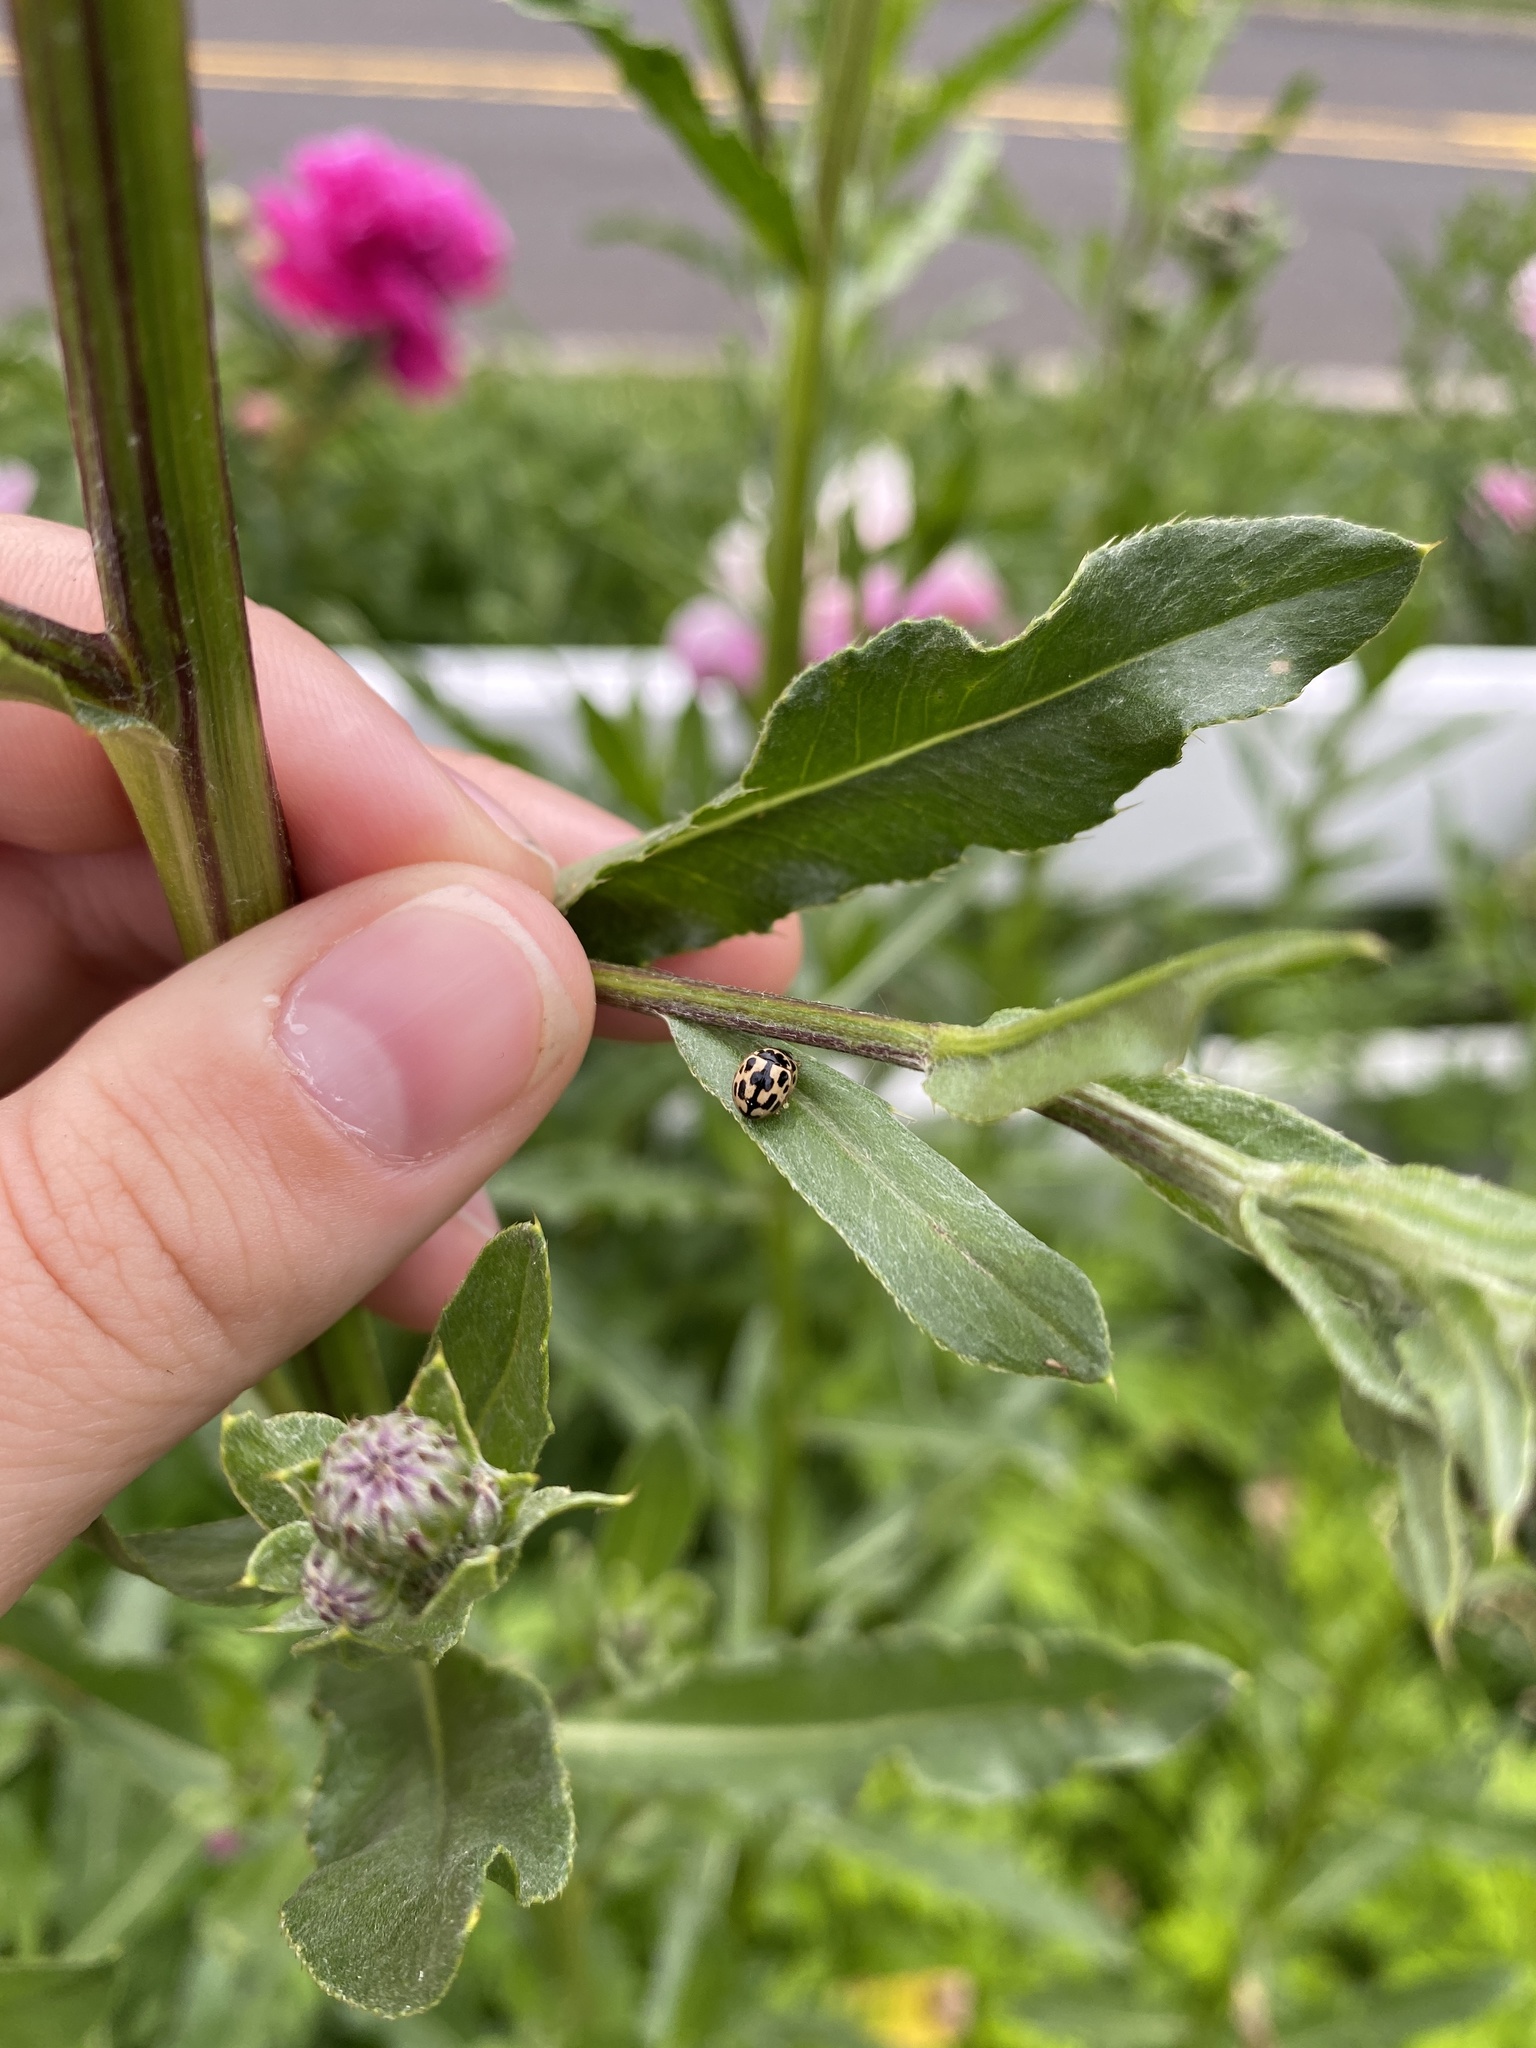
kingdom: Animalia
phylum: Arthropoda
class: Insecta
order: Coleoptera
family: Coccinellidae
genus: Propylaea
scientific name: Propylaea quatuordecimpunctata
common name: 14-spotted ladybird beetle
